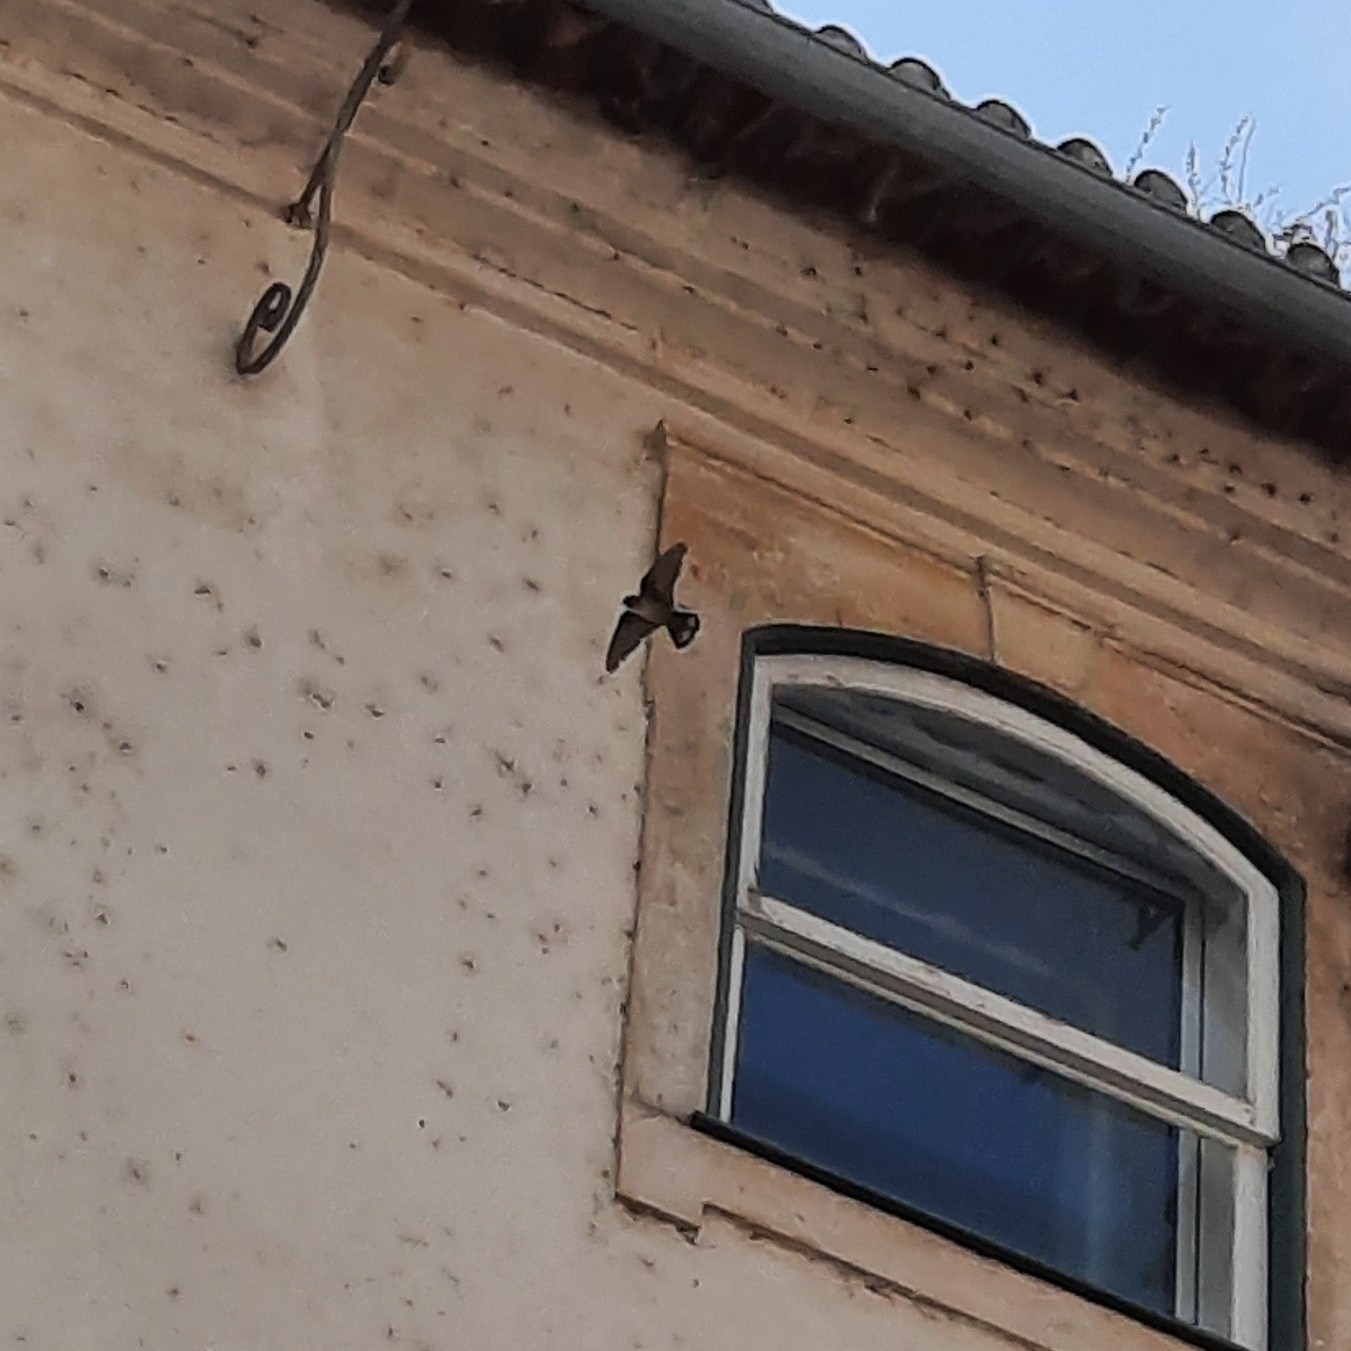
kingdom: Animalia
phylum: Chordata
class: Aves
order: Passeriformes
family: Hirundinidae
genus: Ptyonoprogne
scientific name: Ptyonoprogne rupestris
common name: Eurasian crag martin
